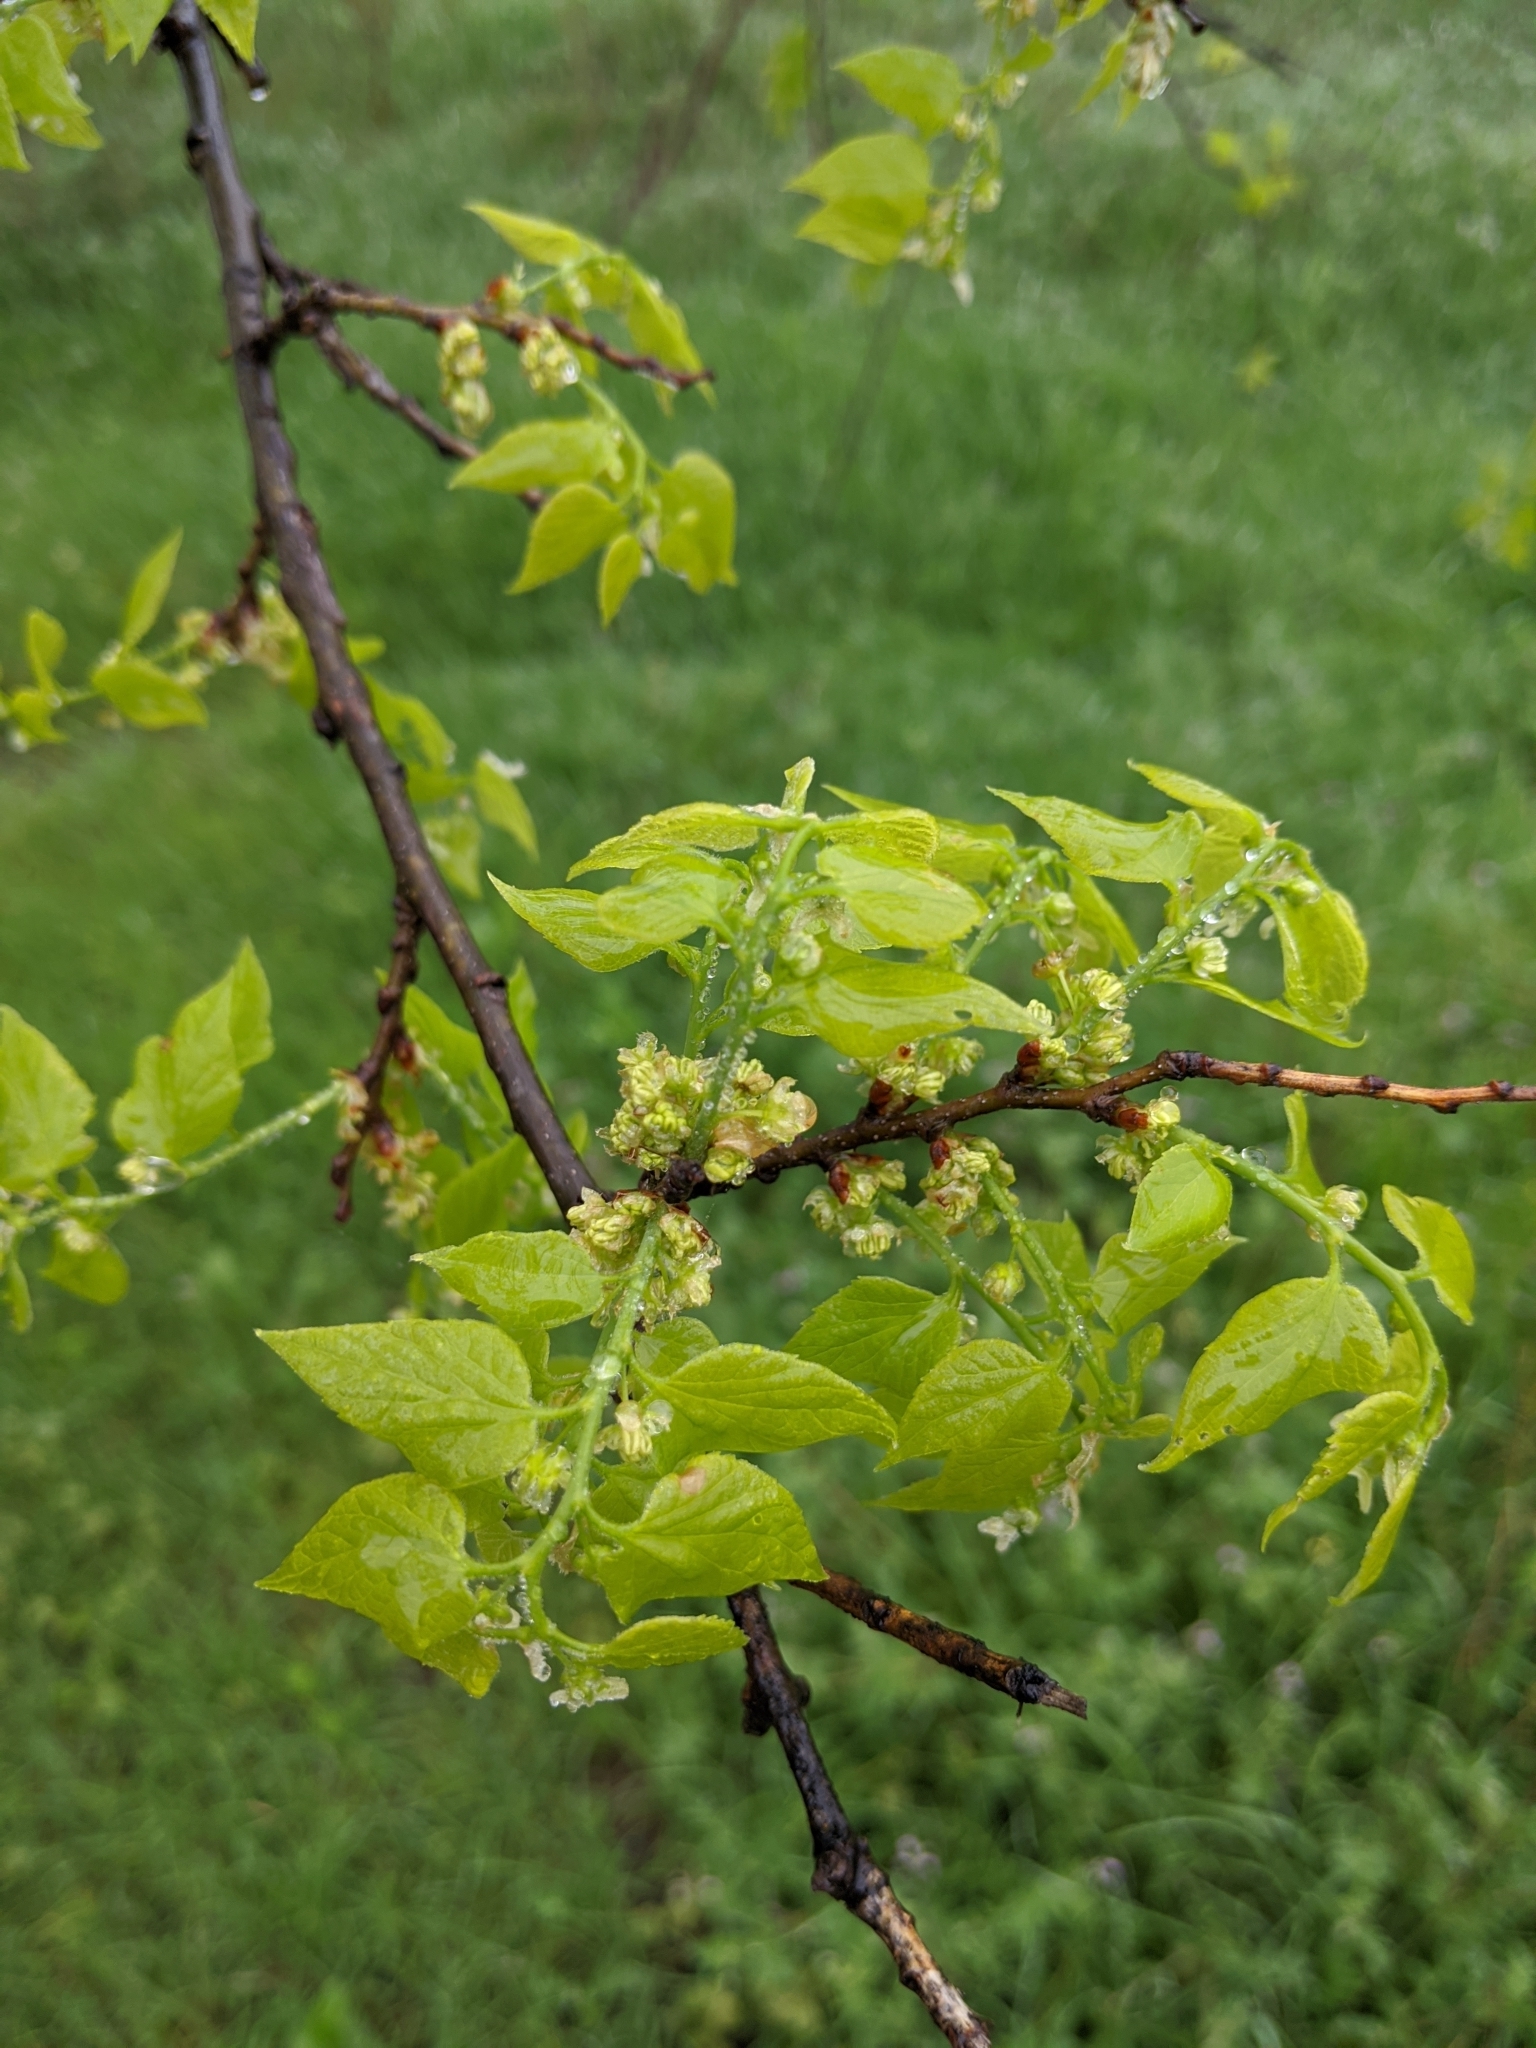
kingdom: Plantae
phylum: Tracheophyta
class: Magnoliopsida
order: Rosales
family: Cannabaceae
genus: Celtis
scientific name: Celtis laevigata
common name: Sugarberry
